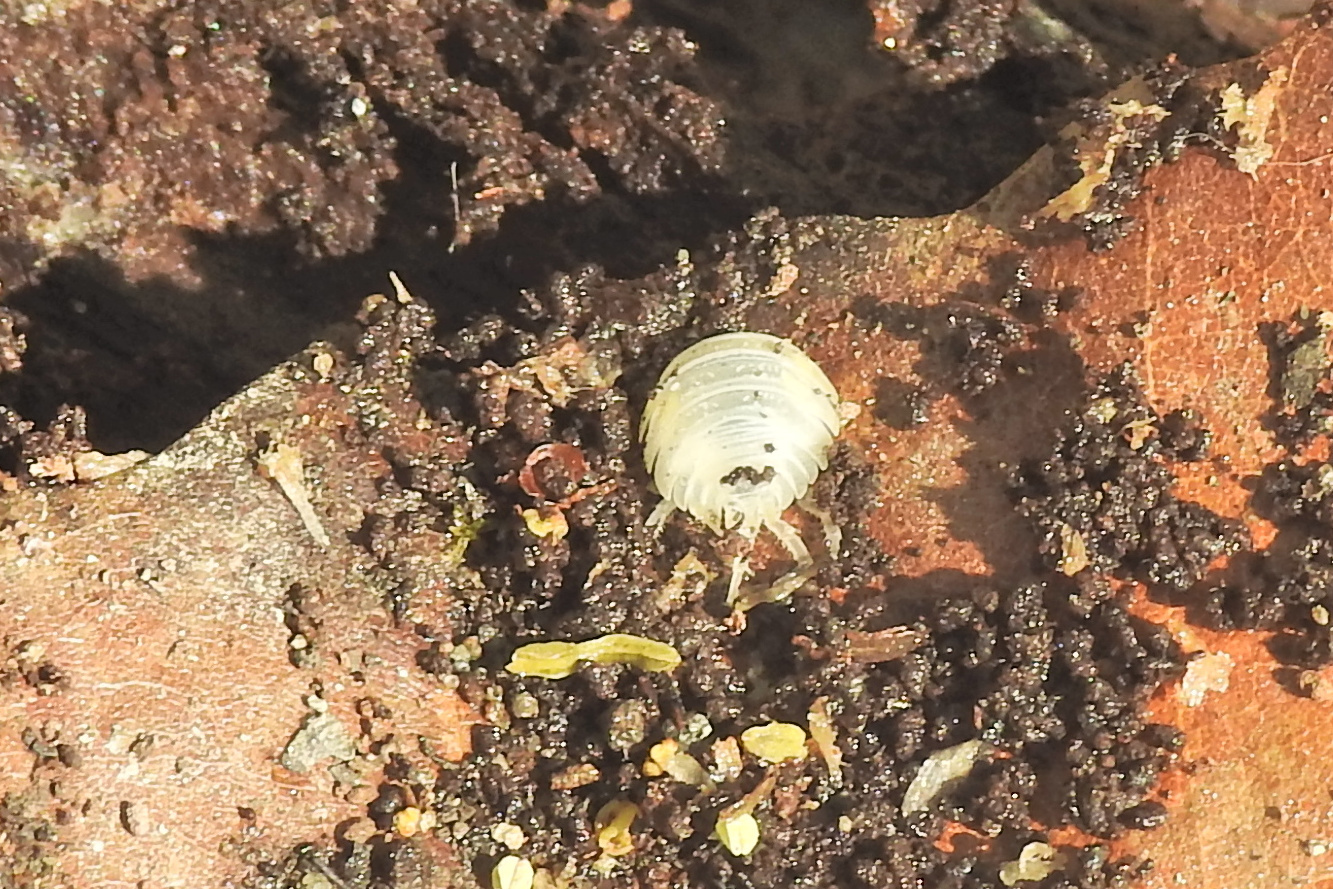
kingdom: Animalia
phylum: Arthropoda
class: Malacostraca
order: Isopoda
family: Oniscidae
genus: Oniscus
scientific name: Oniscus asellus
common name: Common shiny woodlouse
